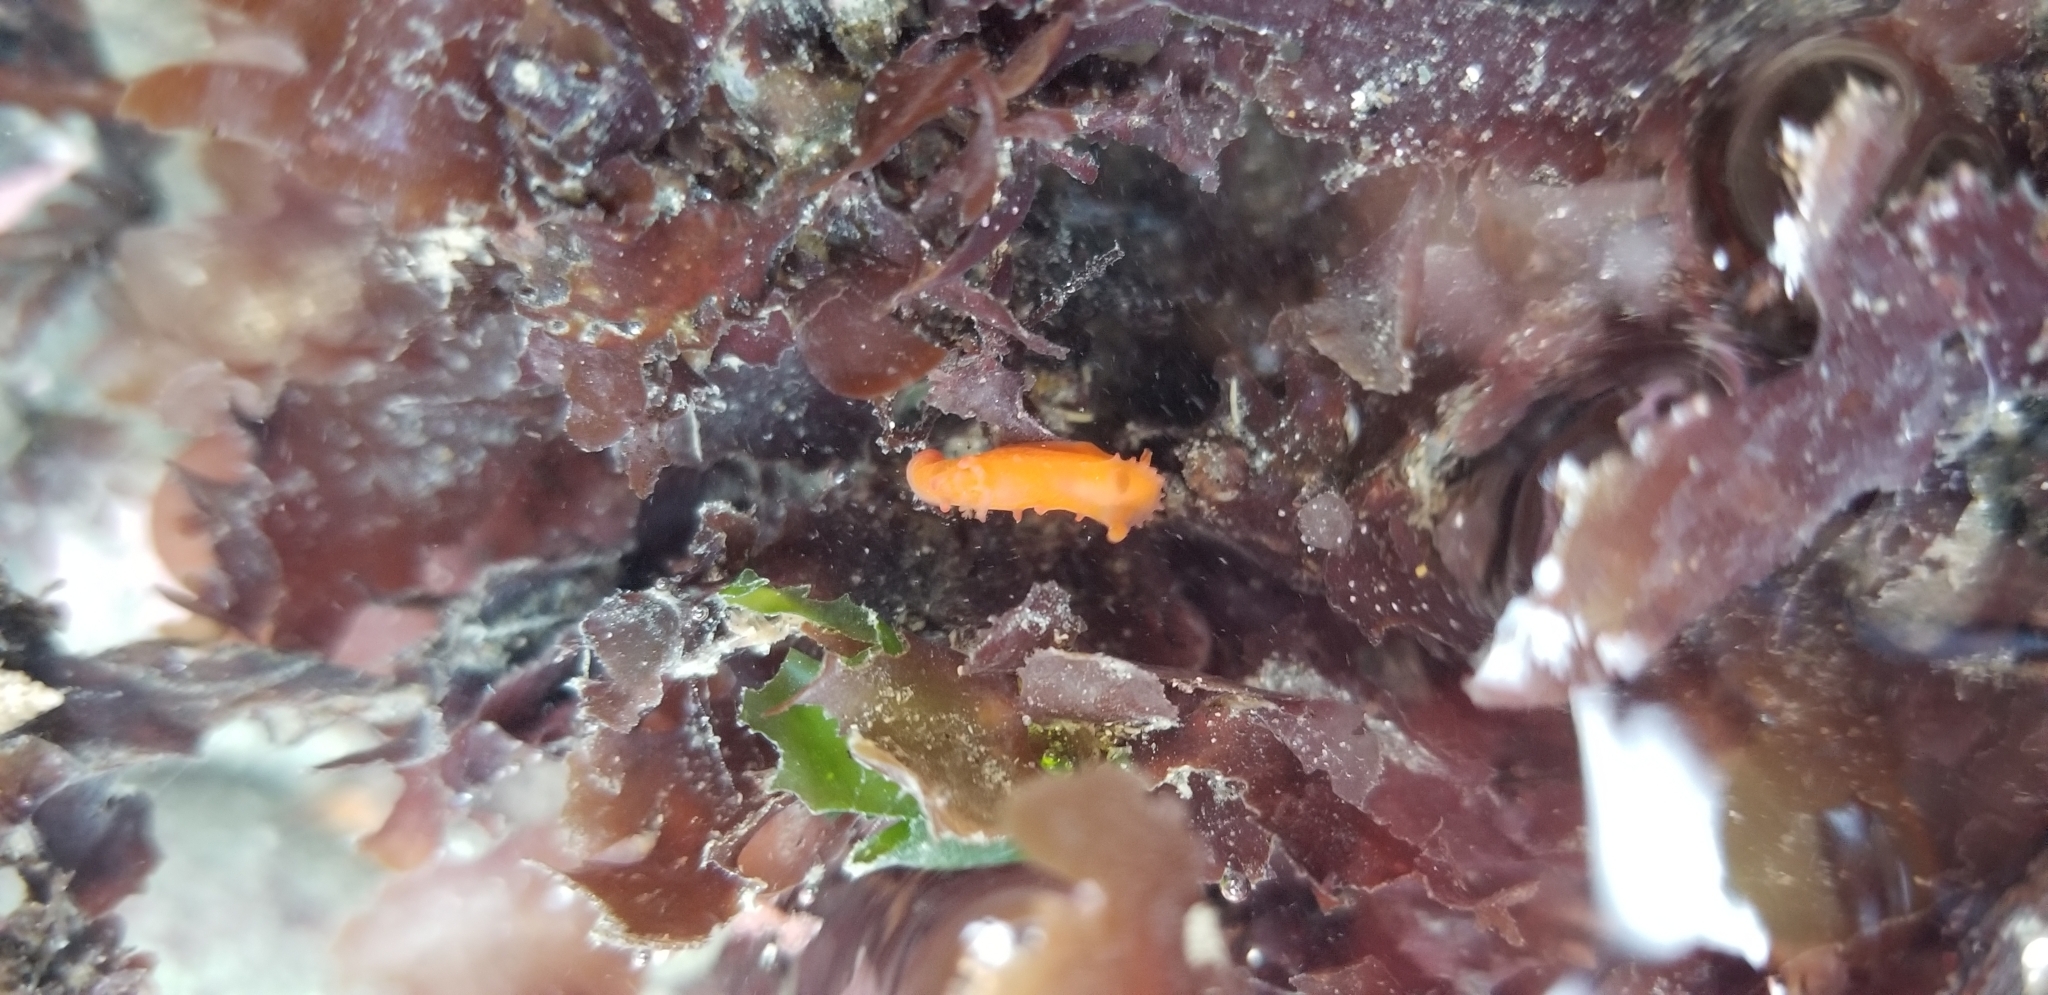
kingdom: Animalia
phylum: Mollusca
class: Gastropoda
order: Nudibranchia
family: Polyceridae
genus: Triopha
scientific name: Triopha maculata
